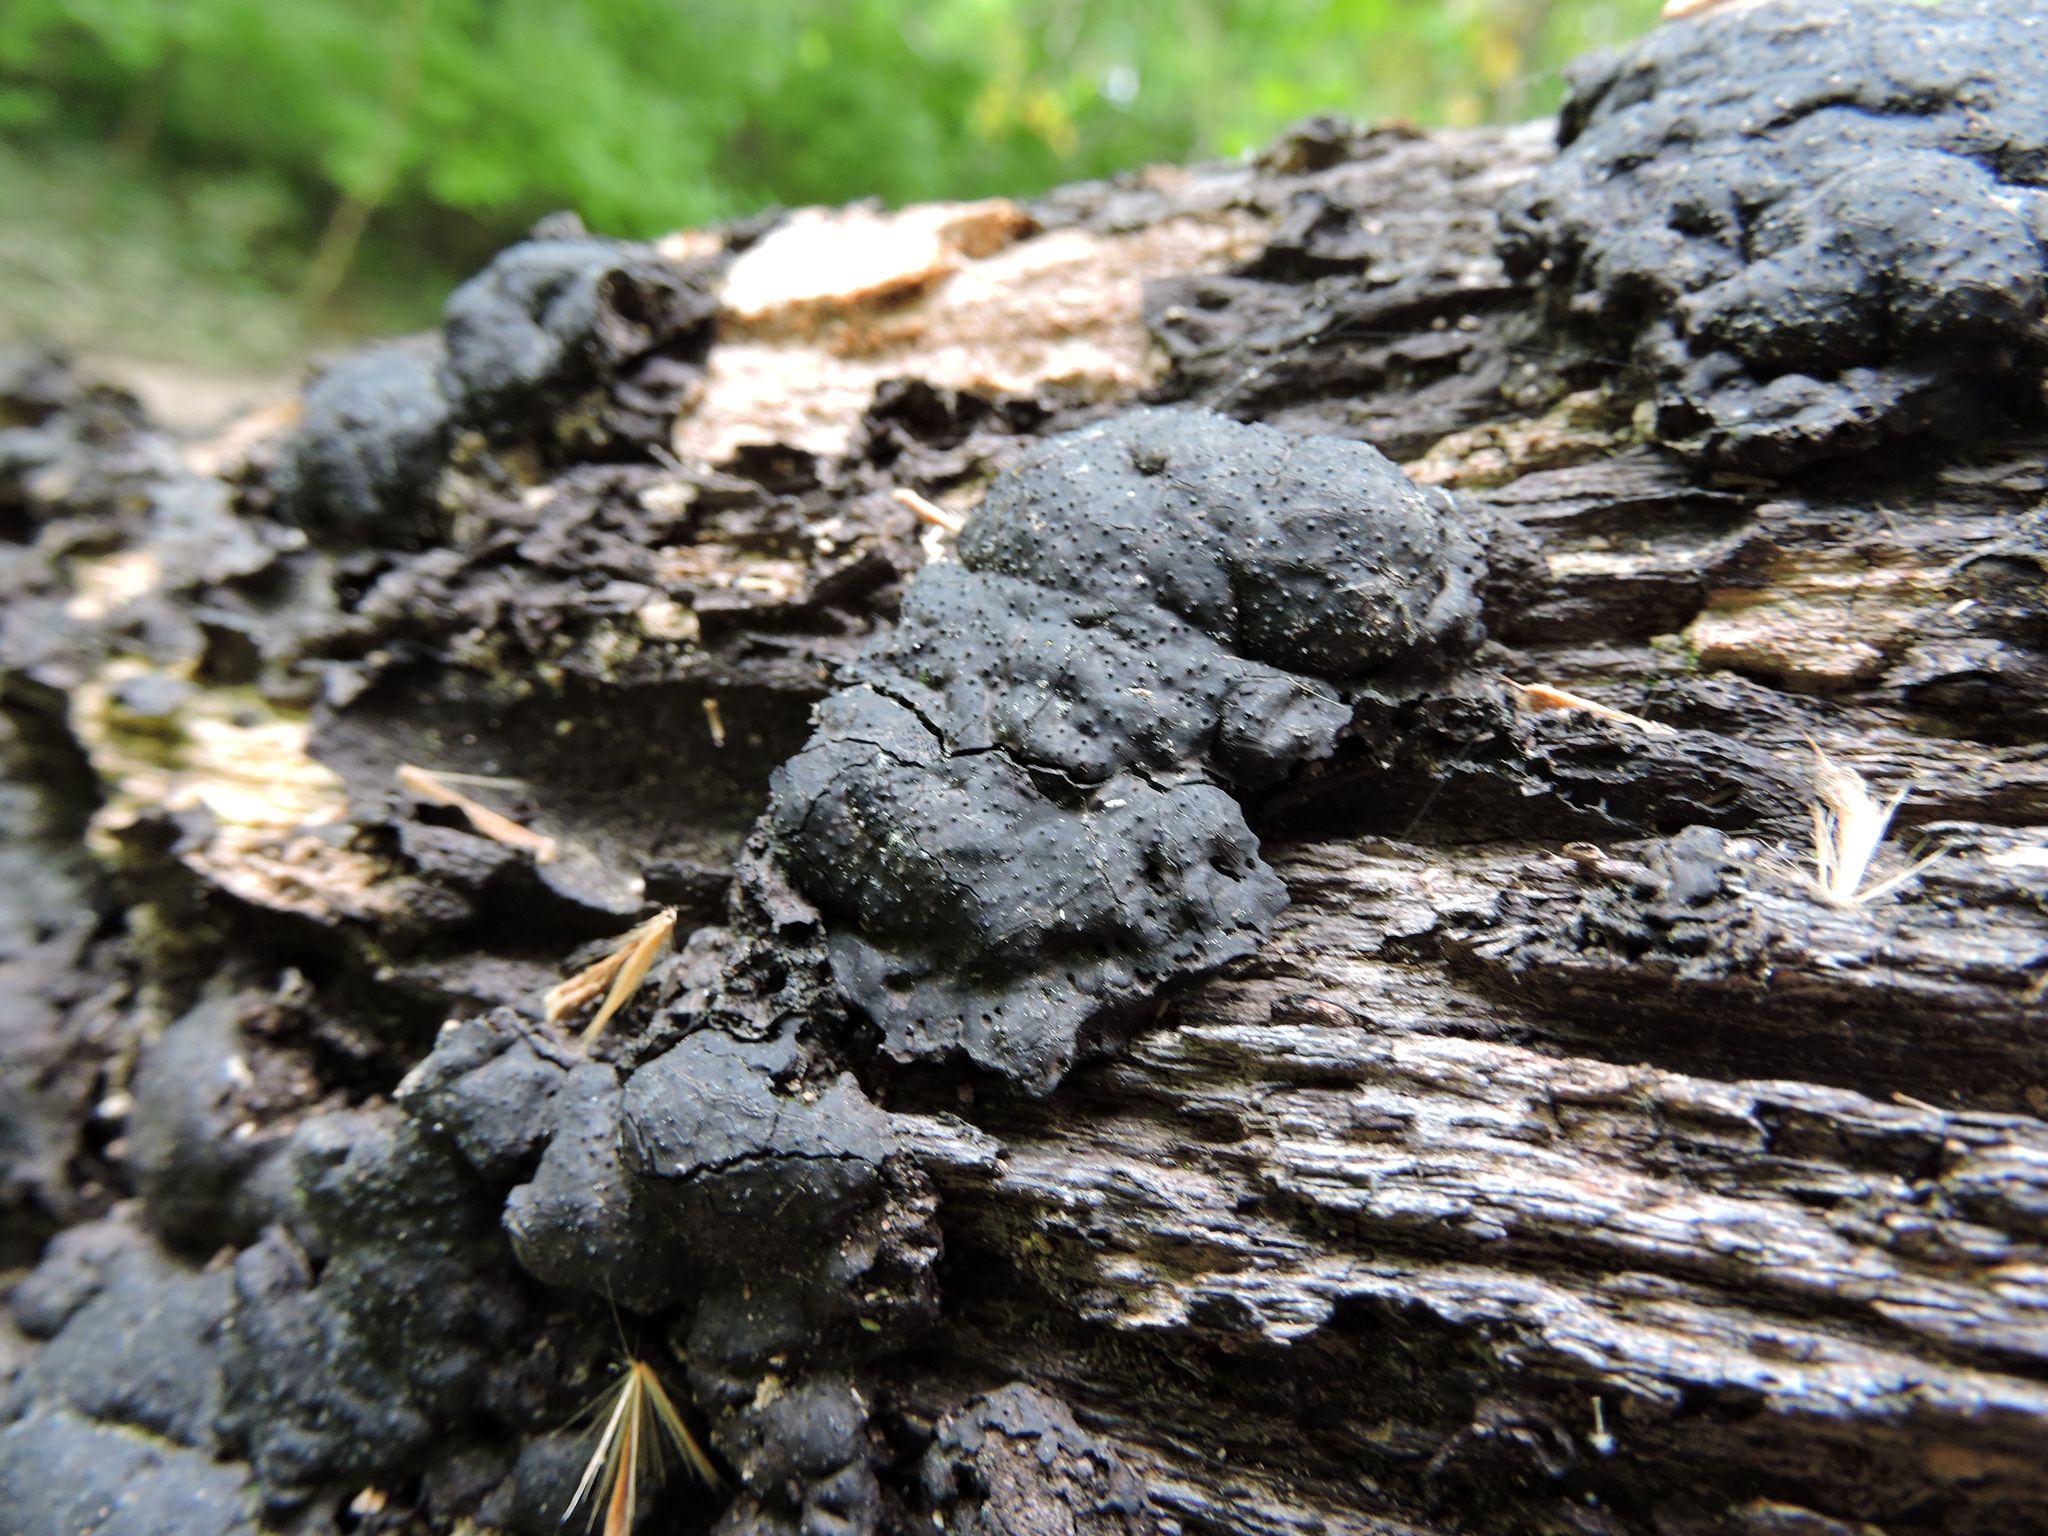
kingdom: Fungi
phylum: Ascomycota
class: Sordariomycetes
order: Xylariales
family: Xylariaceae
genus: Kretzschmaria
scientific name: Kretzschmaria deusta
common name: Brittle cinder
